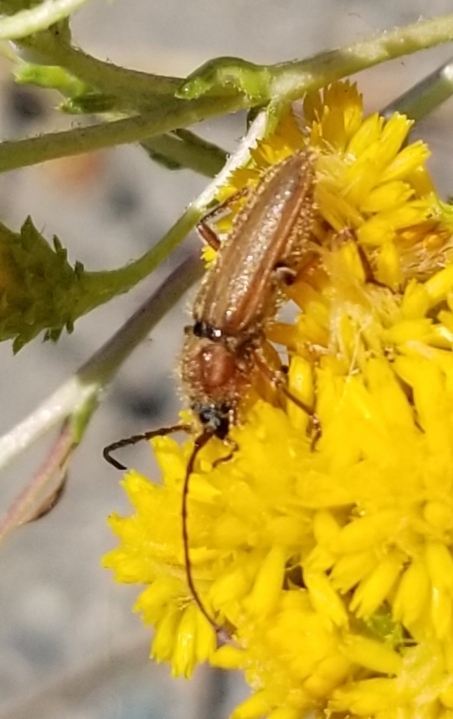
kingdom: Animalia
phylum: Arthropoda
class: Insecta
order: Coleoptera
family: Cerambycidae
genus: Crossidius
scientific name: Crossidius testaceus
